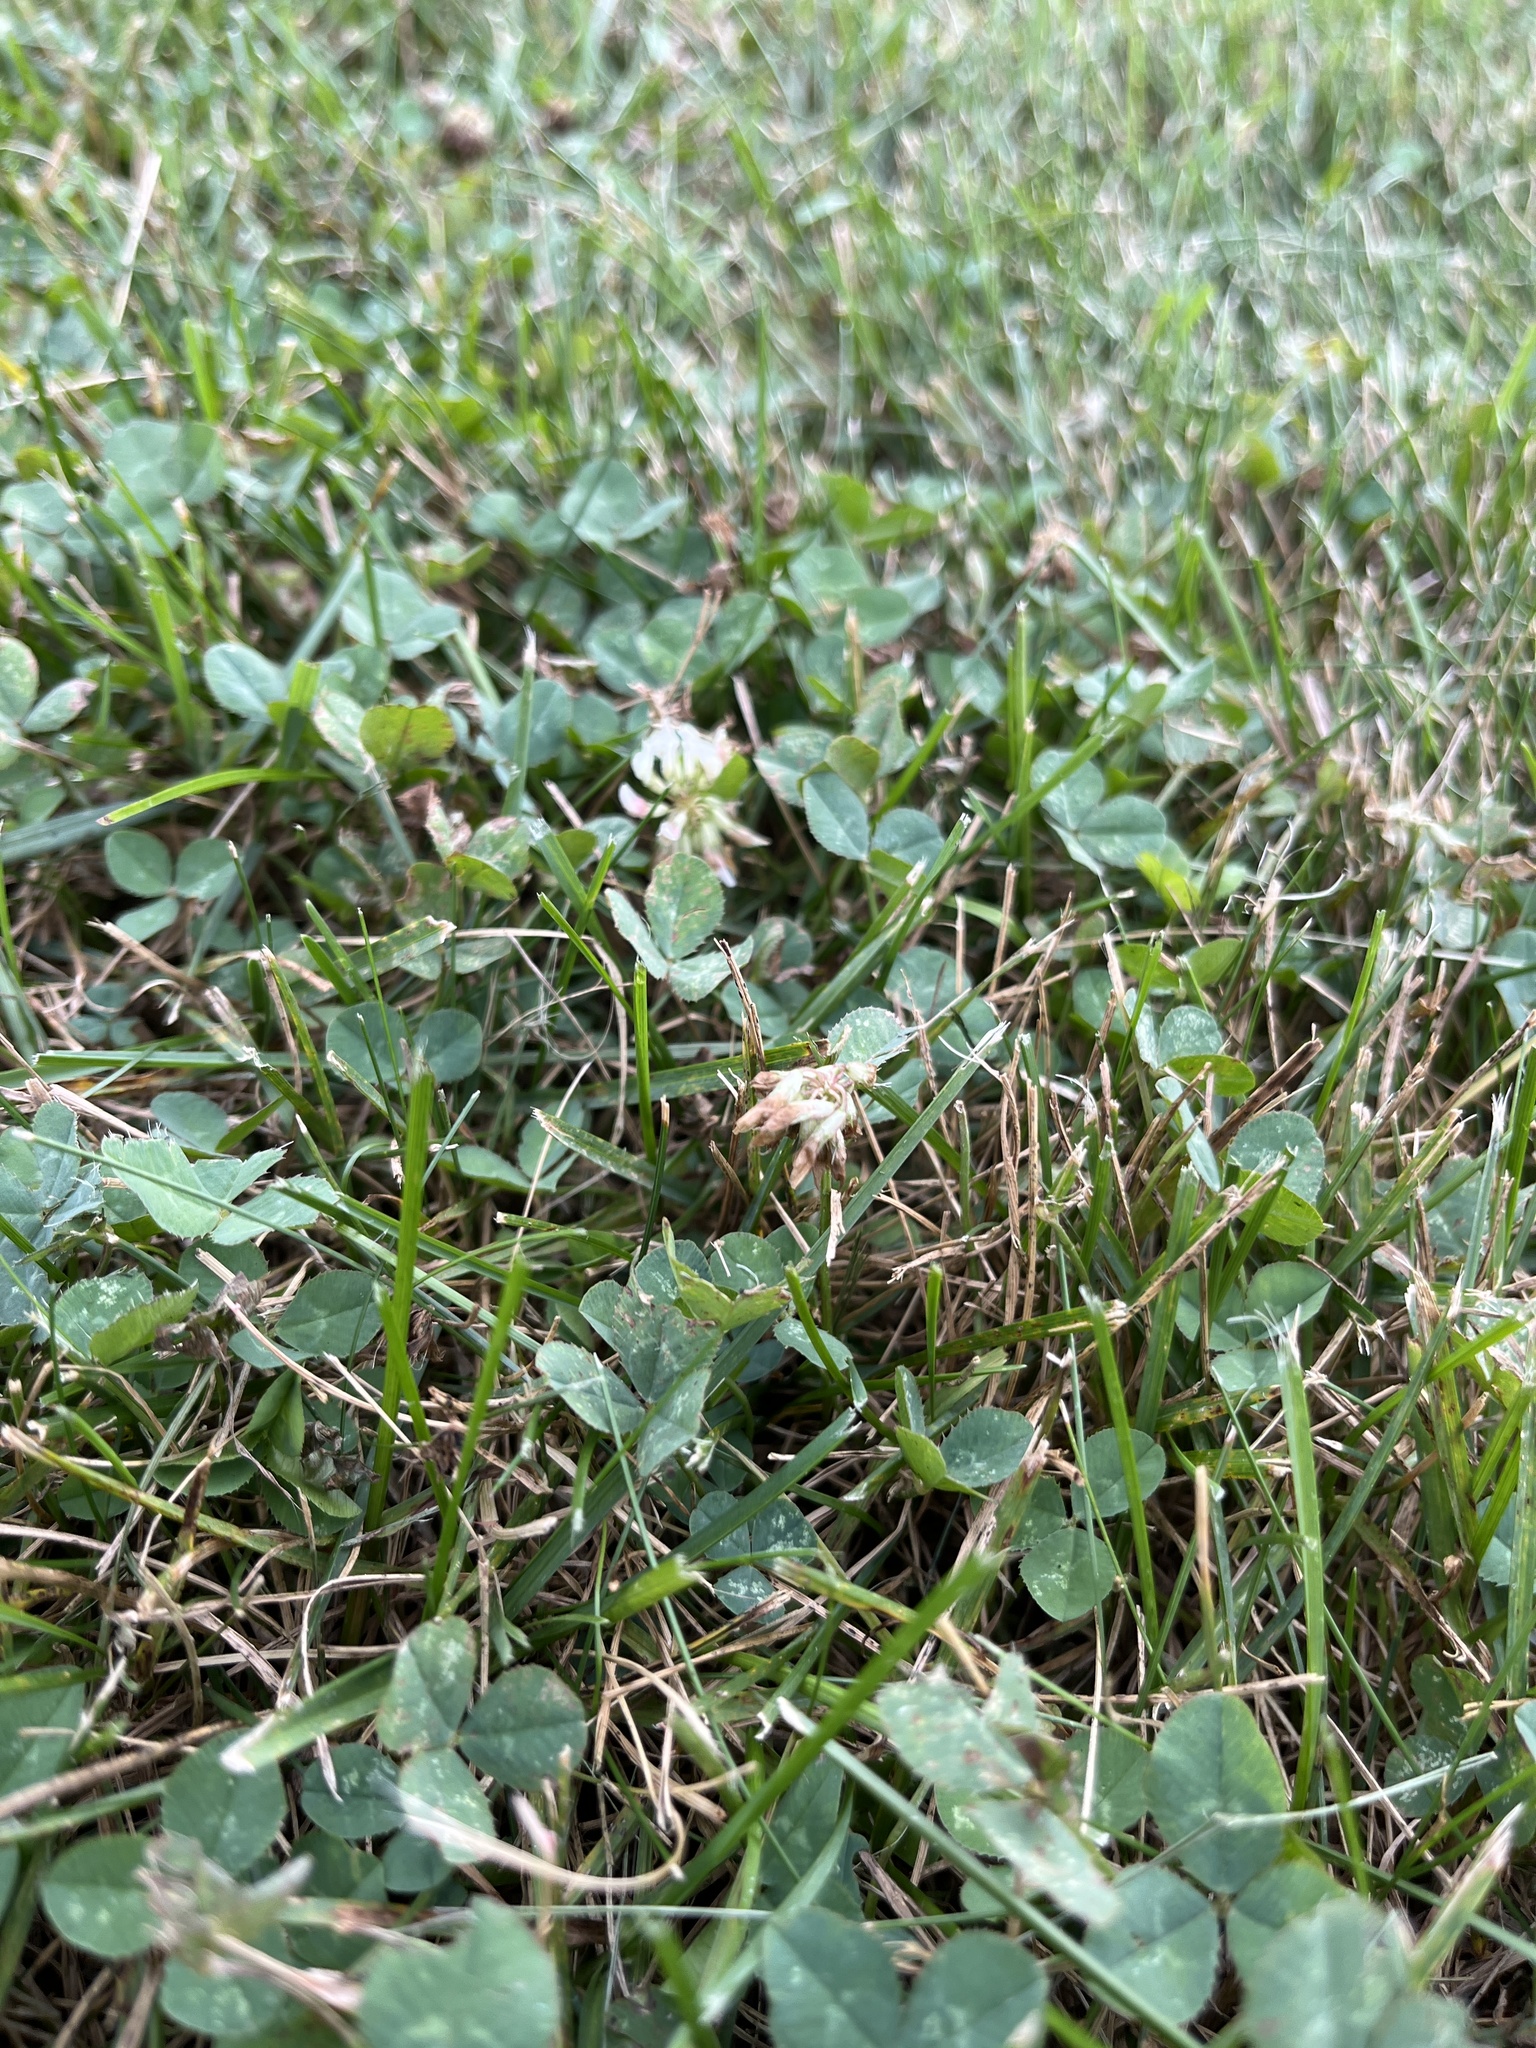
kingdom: Plantae
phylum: Tracheophyta
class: Magnoliopsida
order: Fabales
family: Fabaceae
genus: Trifolium
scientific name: Trifolium repens
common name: White clover
